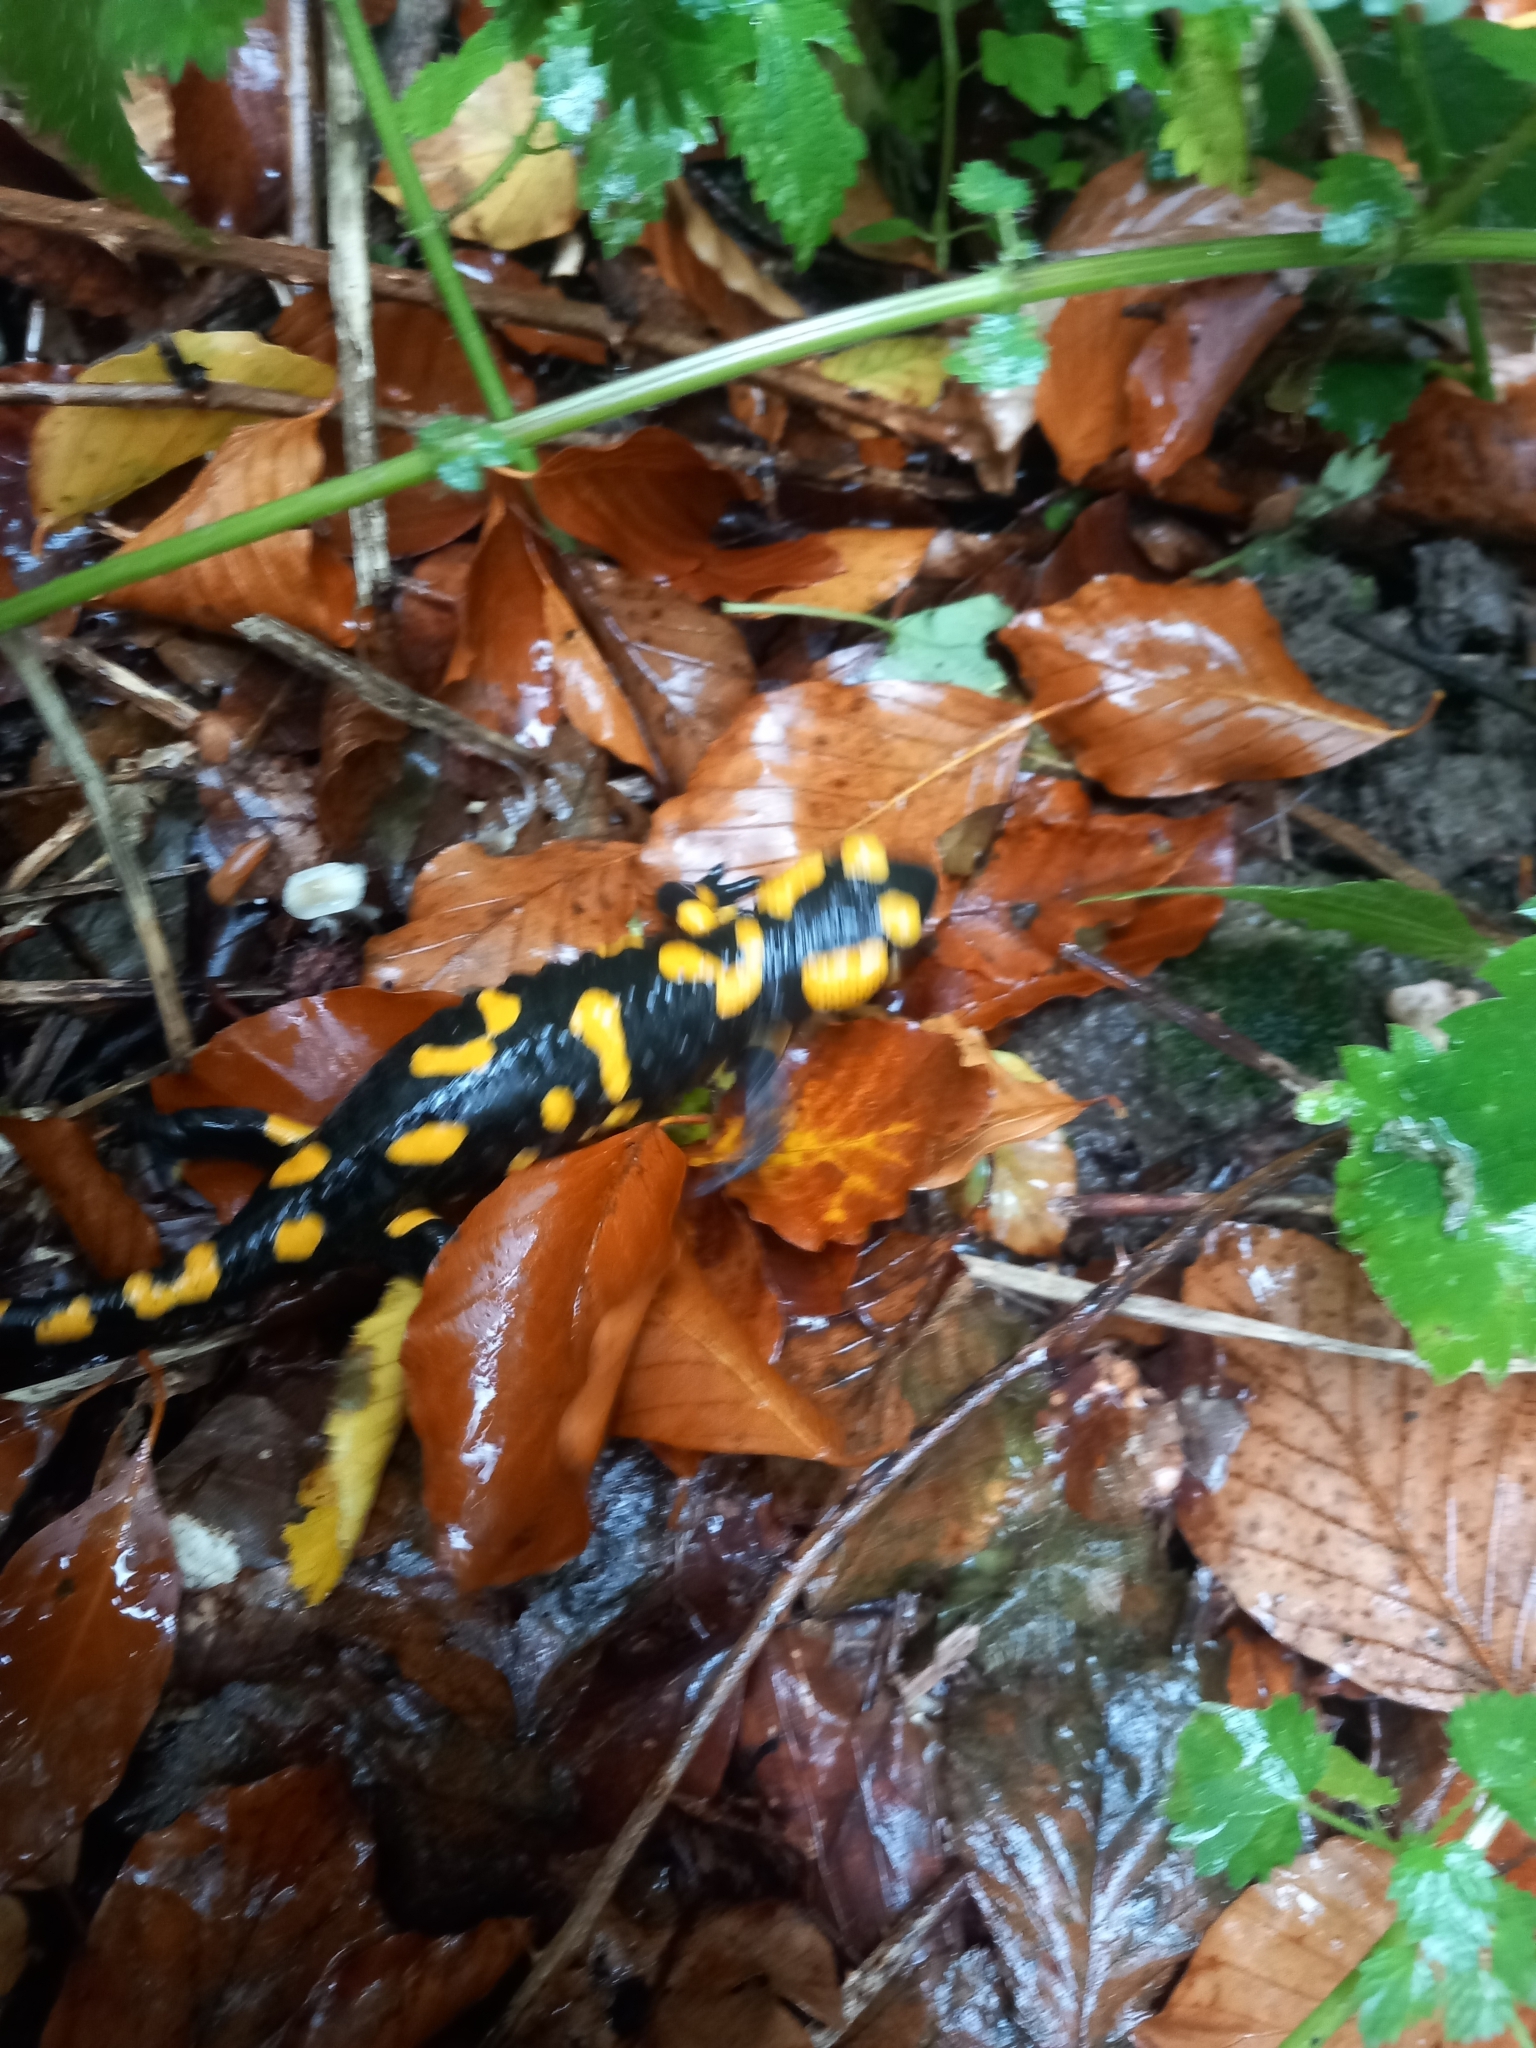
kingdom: Animalia
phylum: Chordata
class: Amphibia
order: Caudata
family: Salamandridae
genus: Salamandra
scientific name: Salamandra salamandra
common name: Fire salamander
